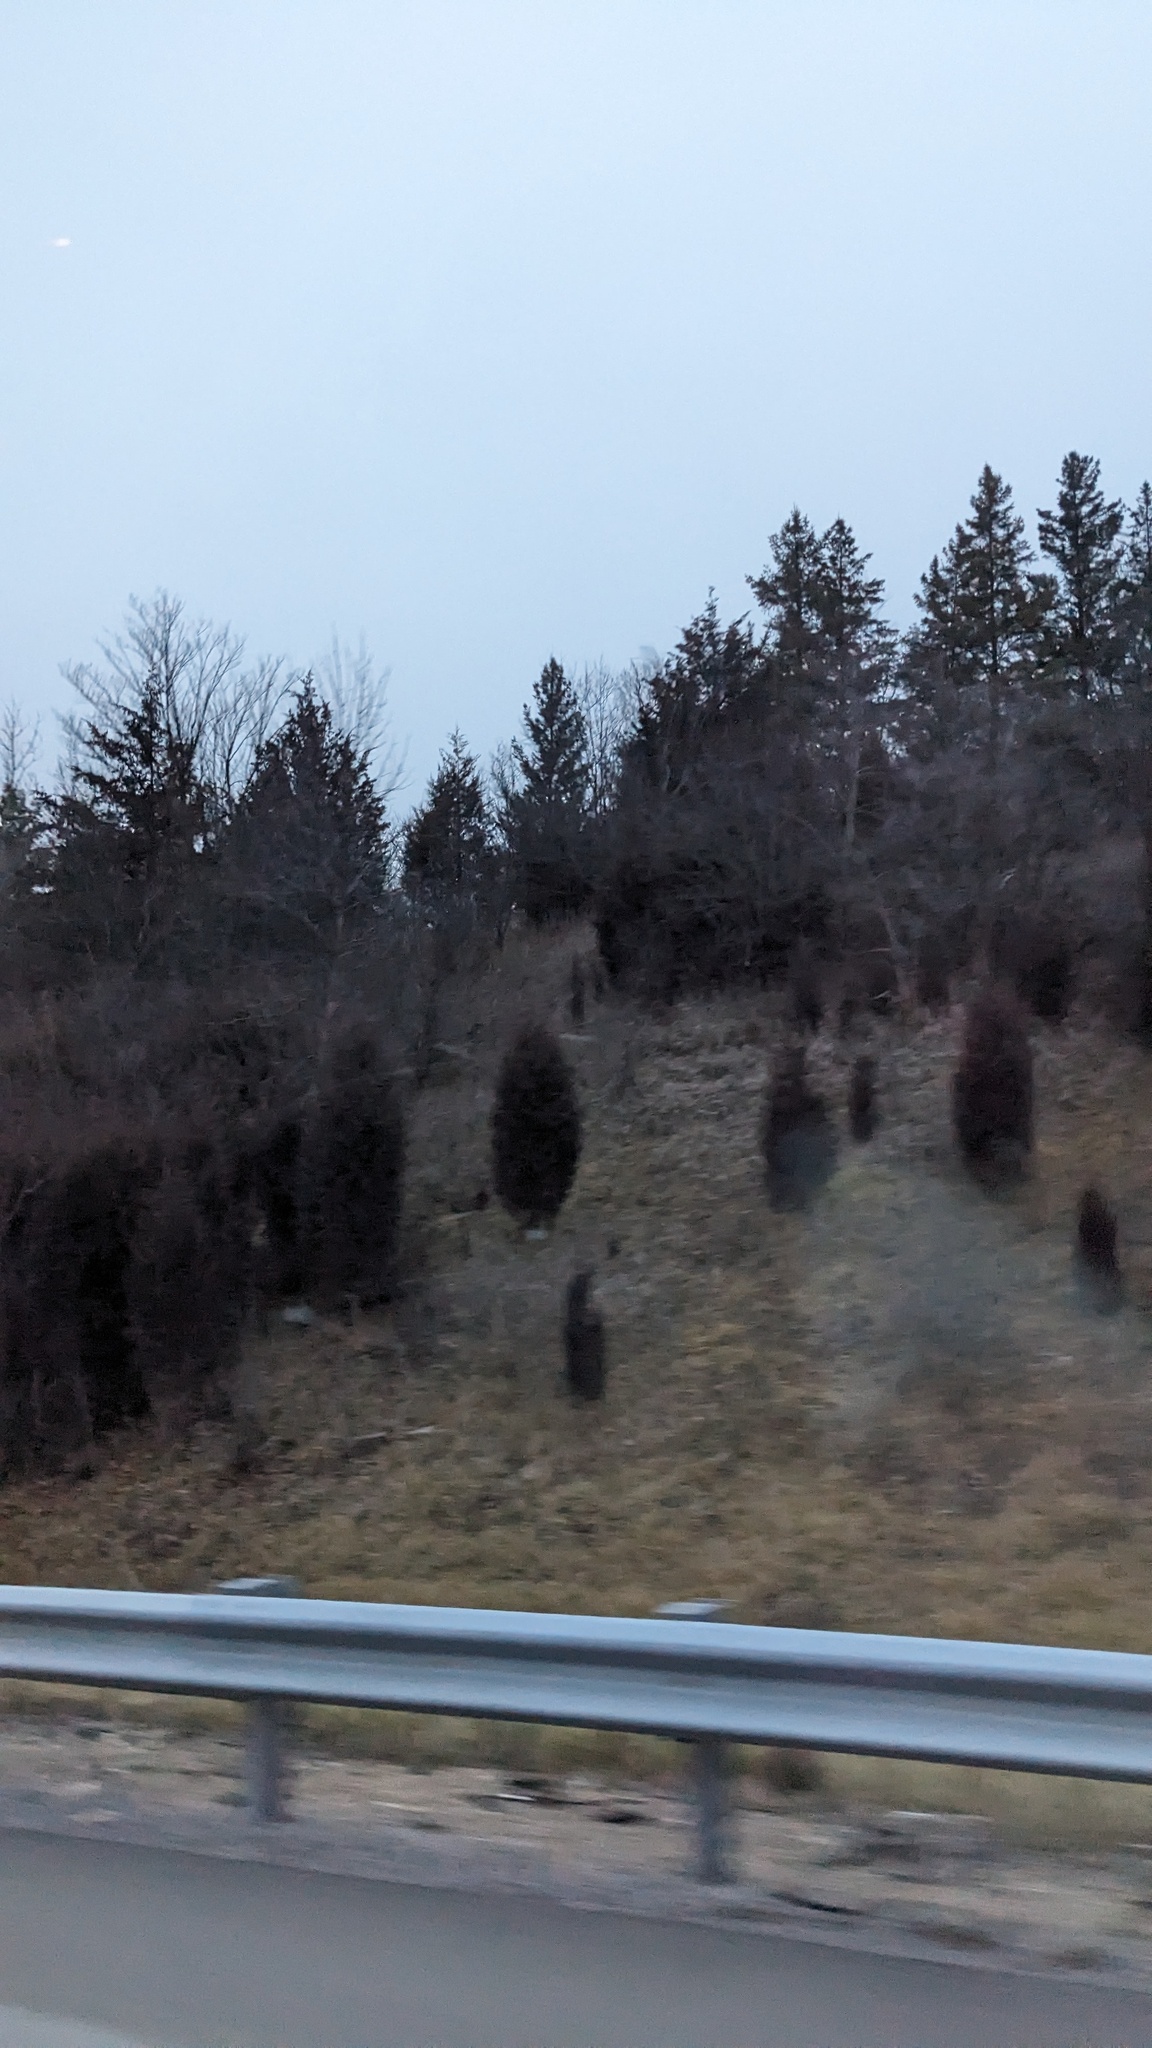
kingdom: Plantae
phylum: Tracheophyta
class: Pinopsida
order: Pinales
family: Cupressaceae
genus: Juniperus
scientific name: Juniperus virginiana
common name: Red juniper
